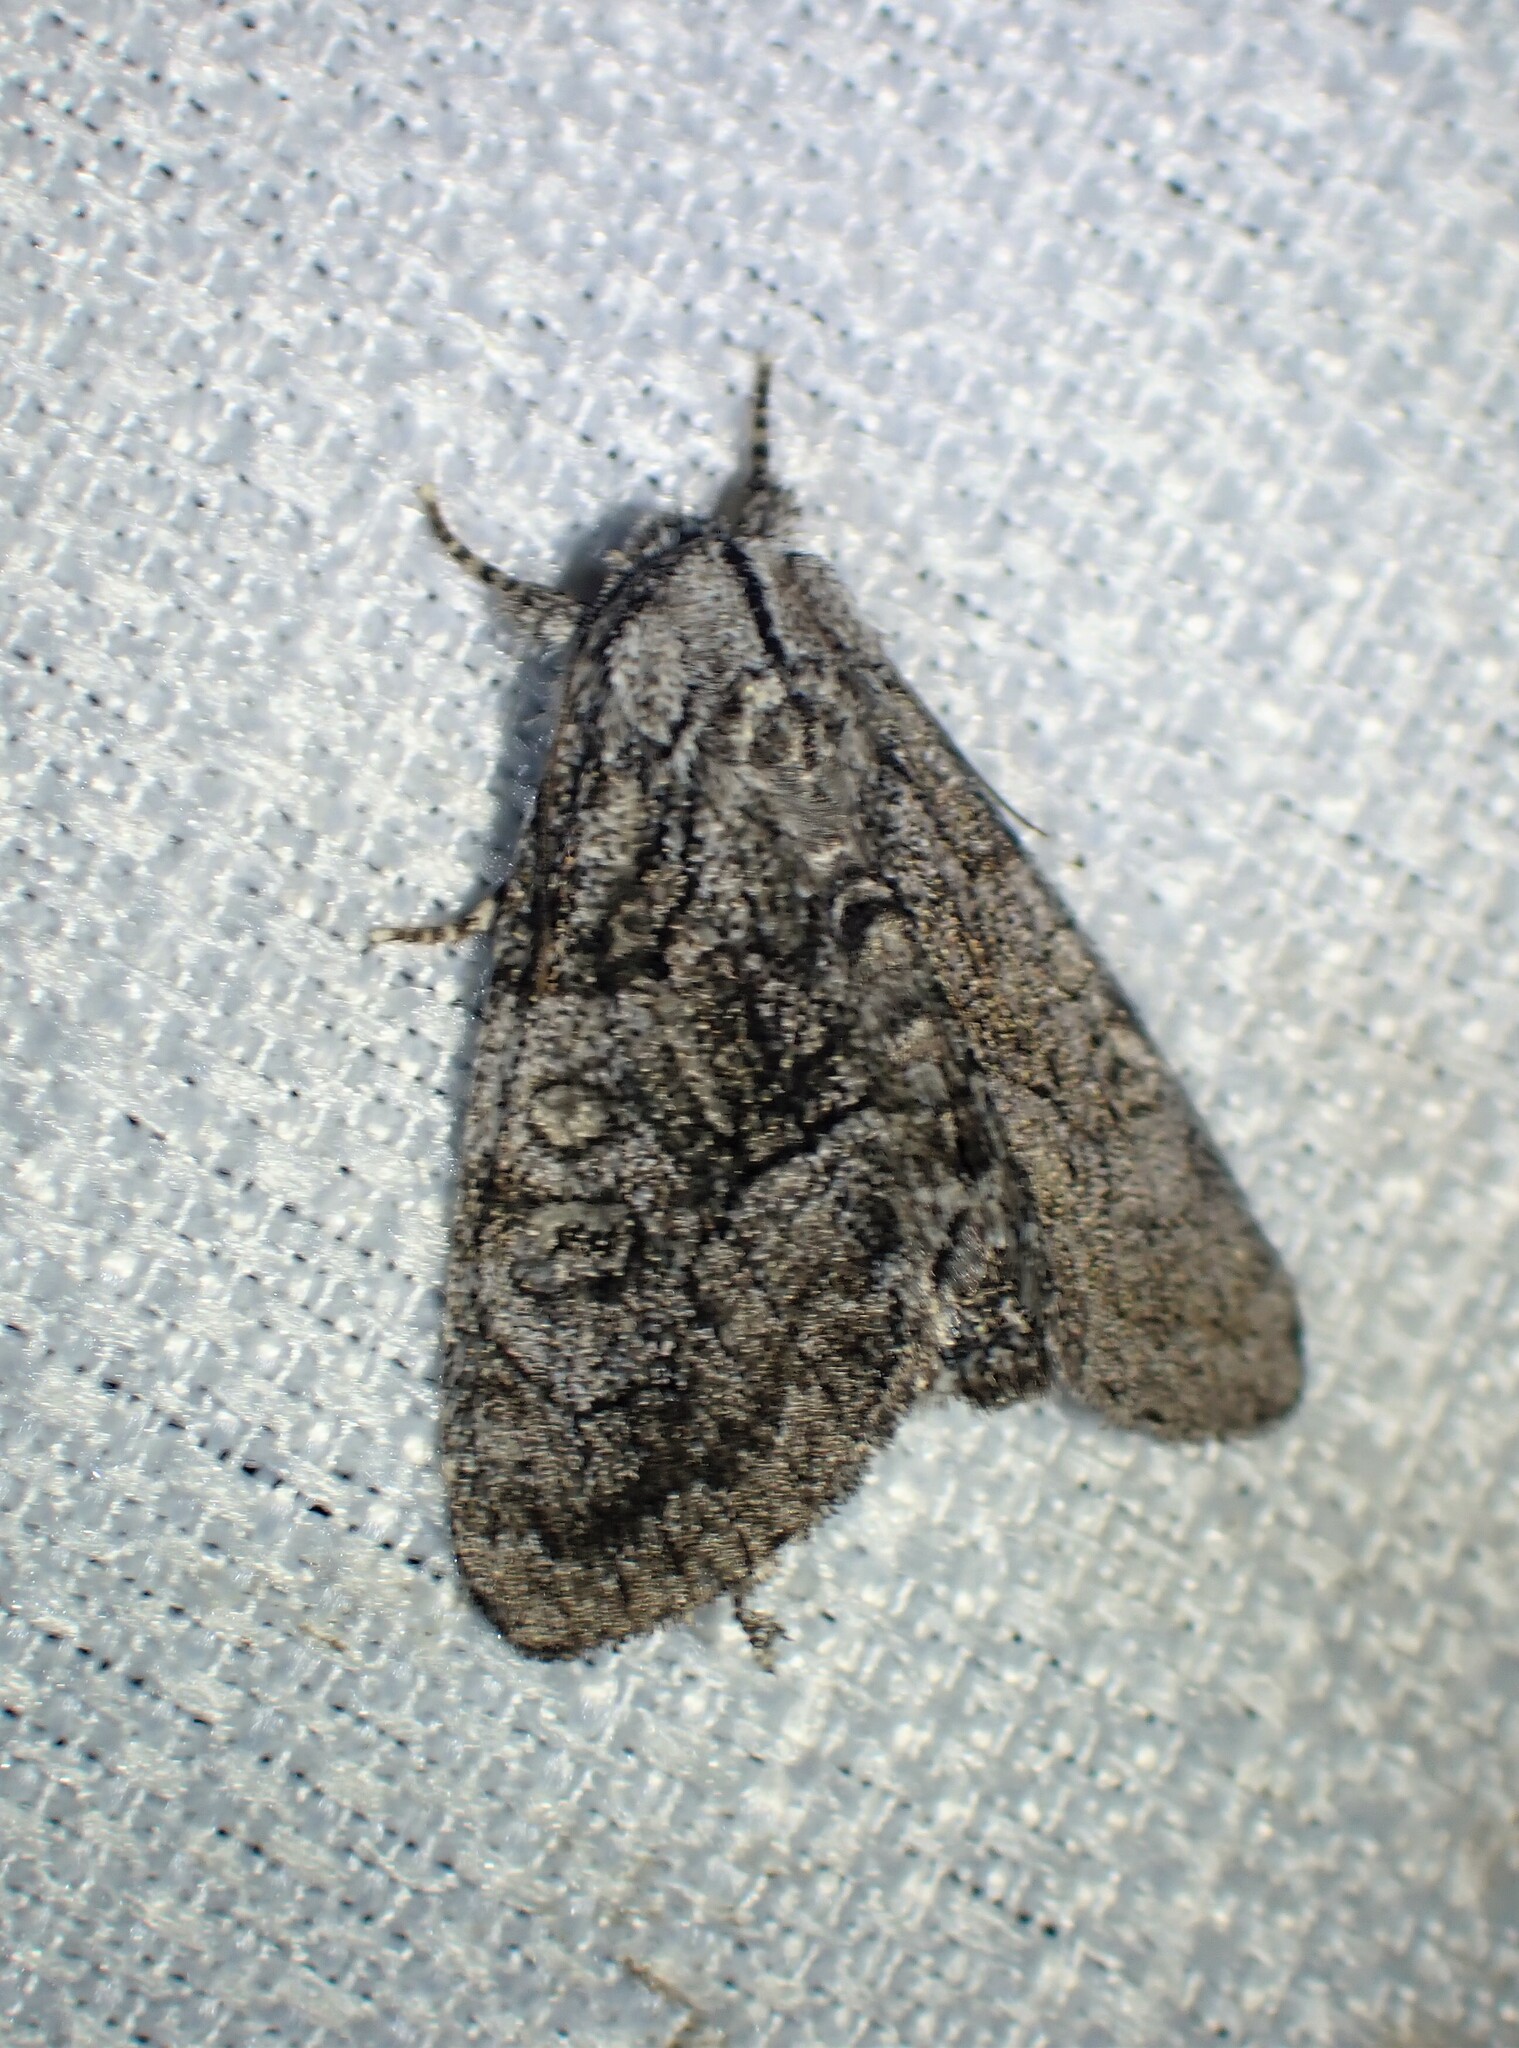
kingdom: Animalia
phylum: Arthropoda
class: Insecta
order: Lepidoptera
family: Noctuidae
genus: Raphia
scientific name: Raphia frater
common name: Brother
